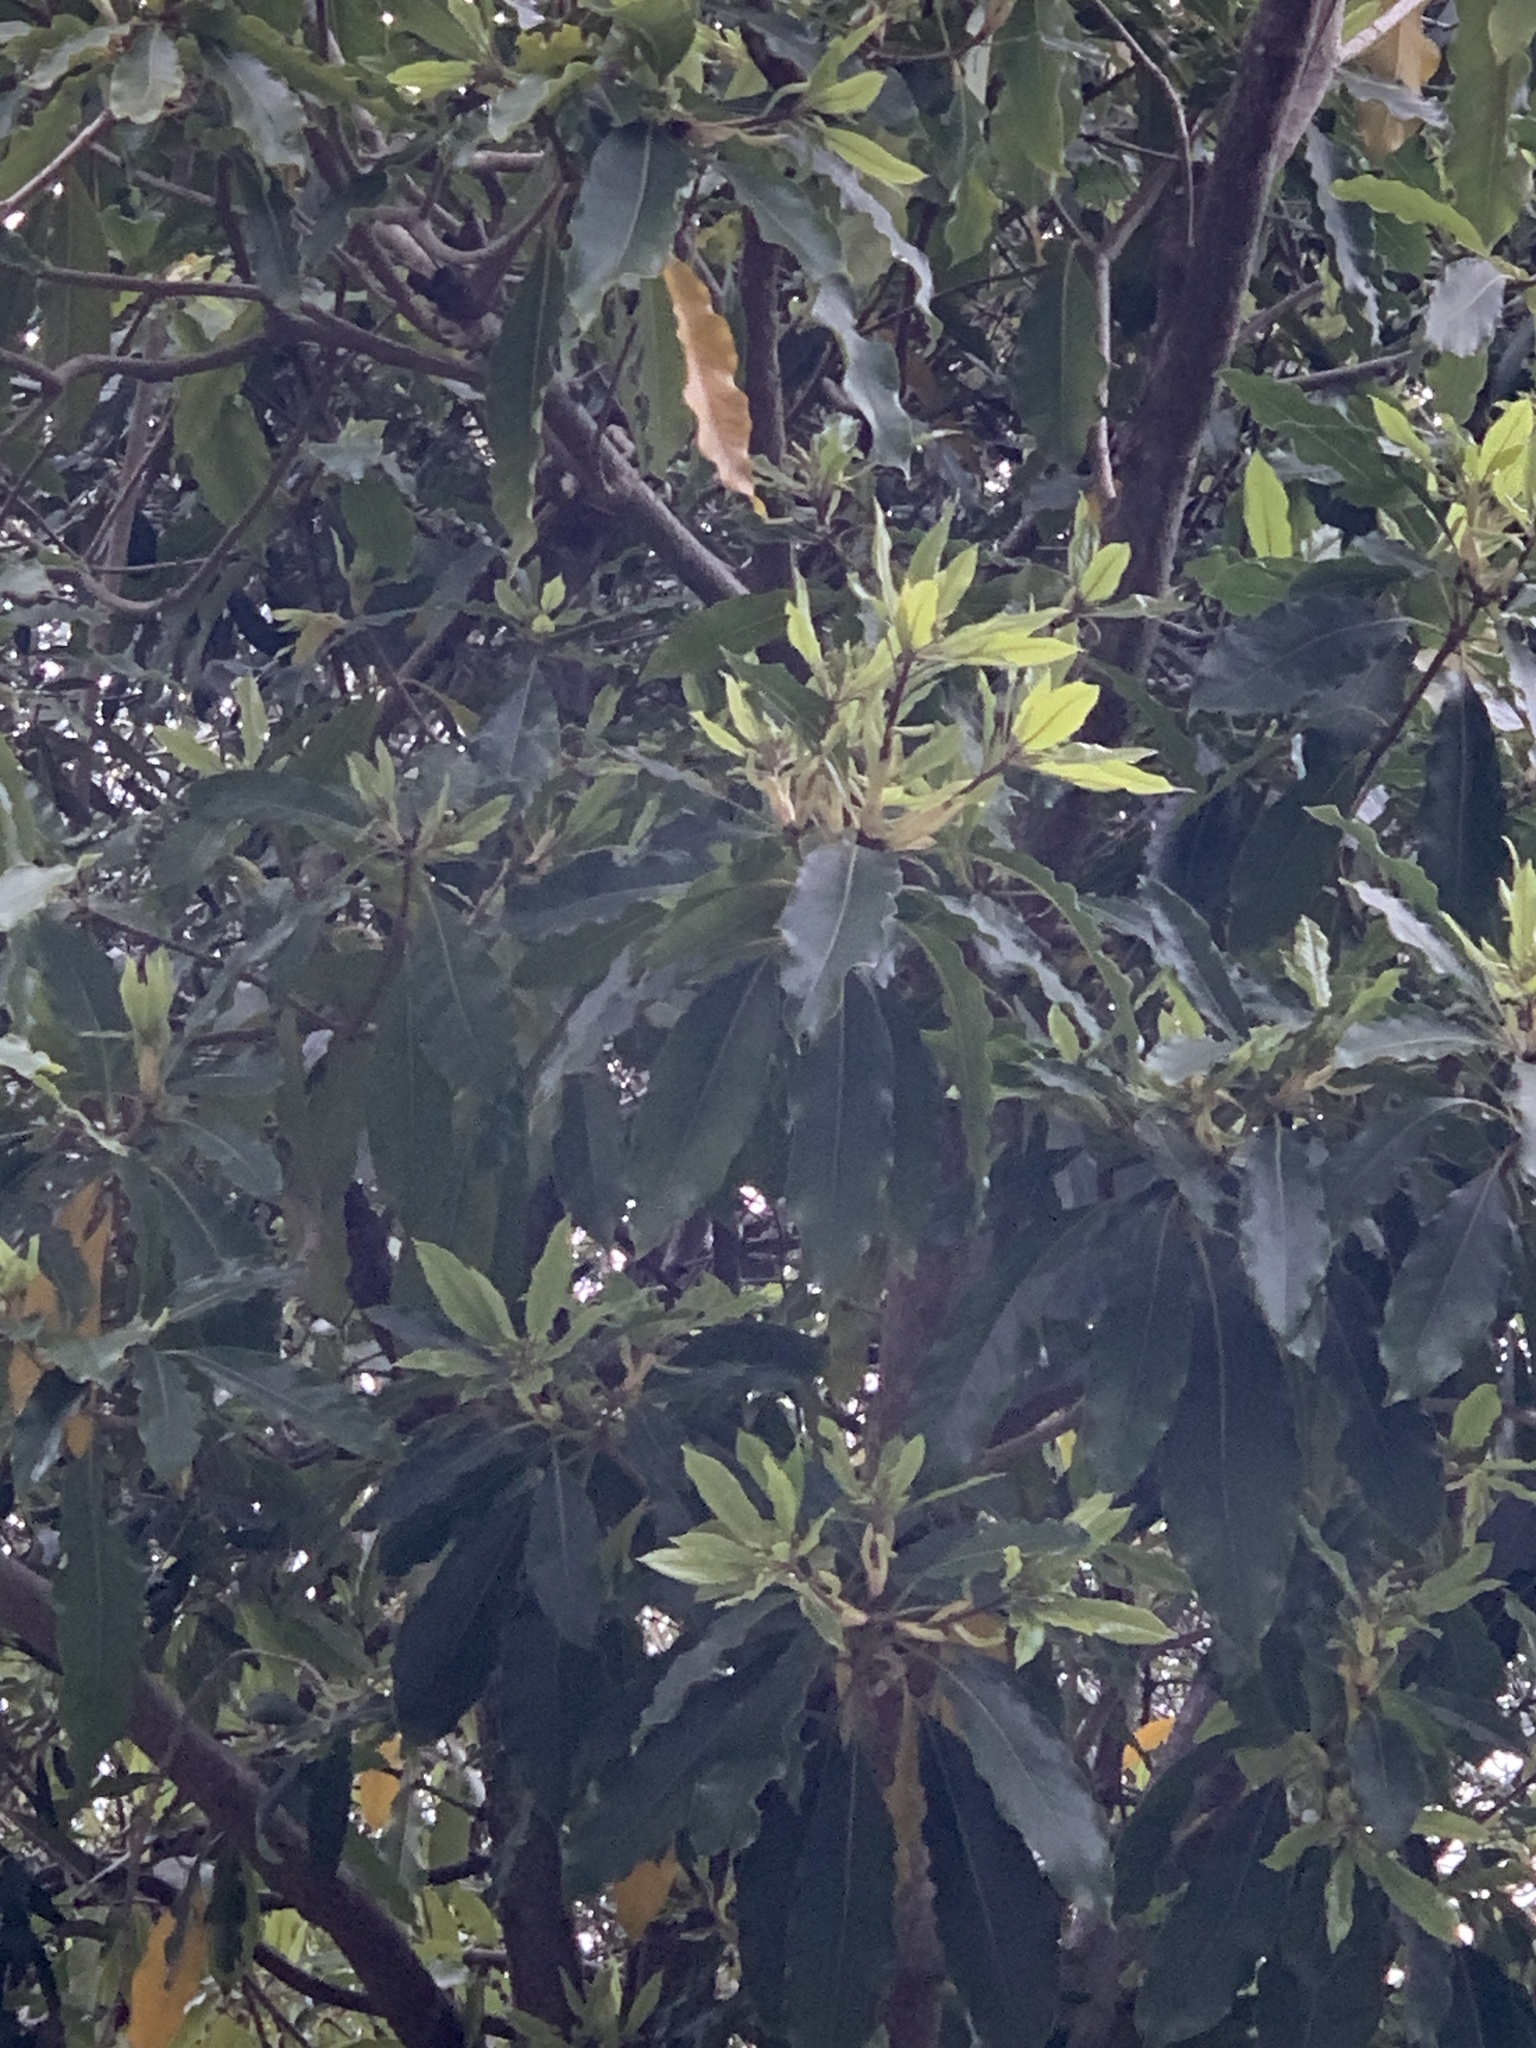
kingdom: Plantae
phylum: Tracheophyta
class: Magnoliopsida
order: Apiales
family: Pittosporaceae
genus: Pittosporum
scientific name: Pittosporum undulatum
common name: Australian cheesewood
